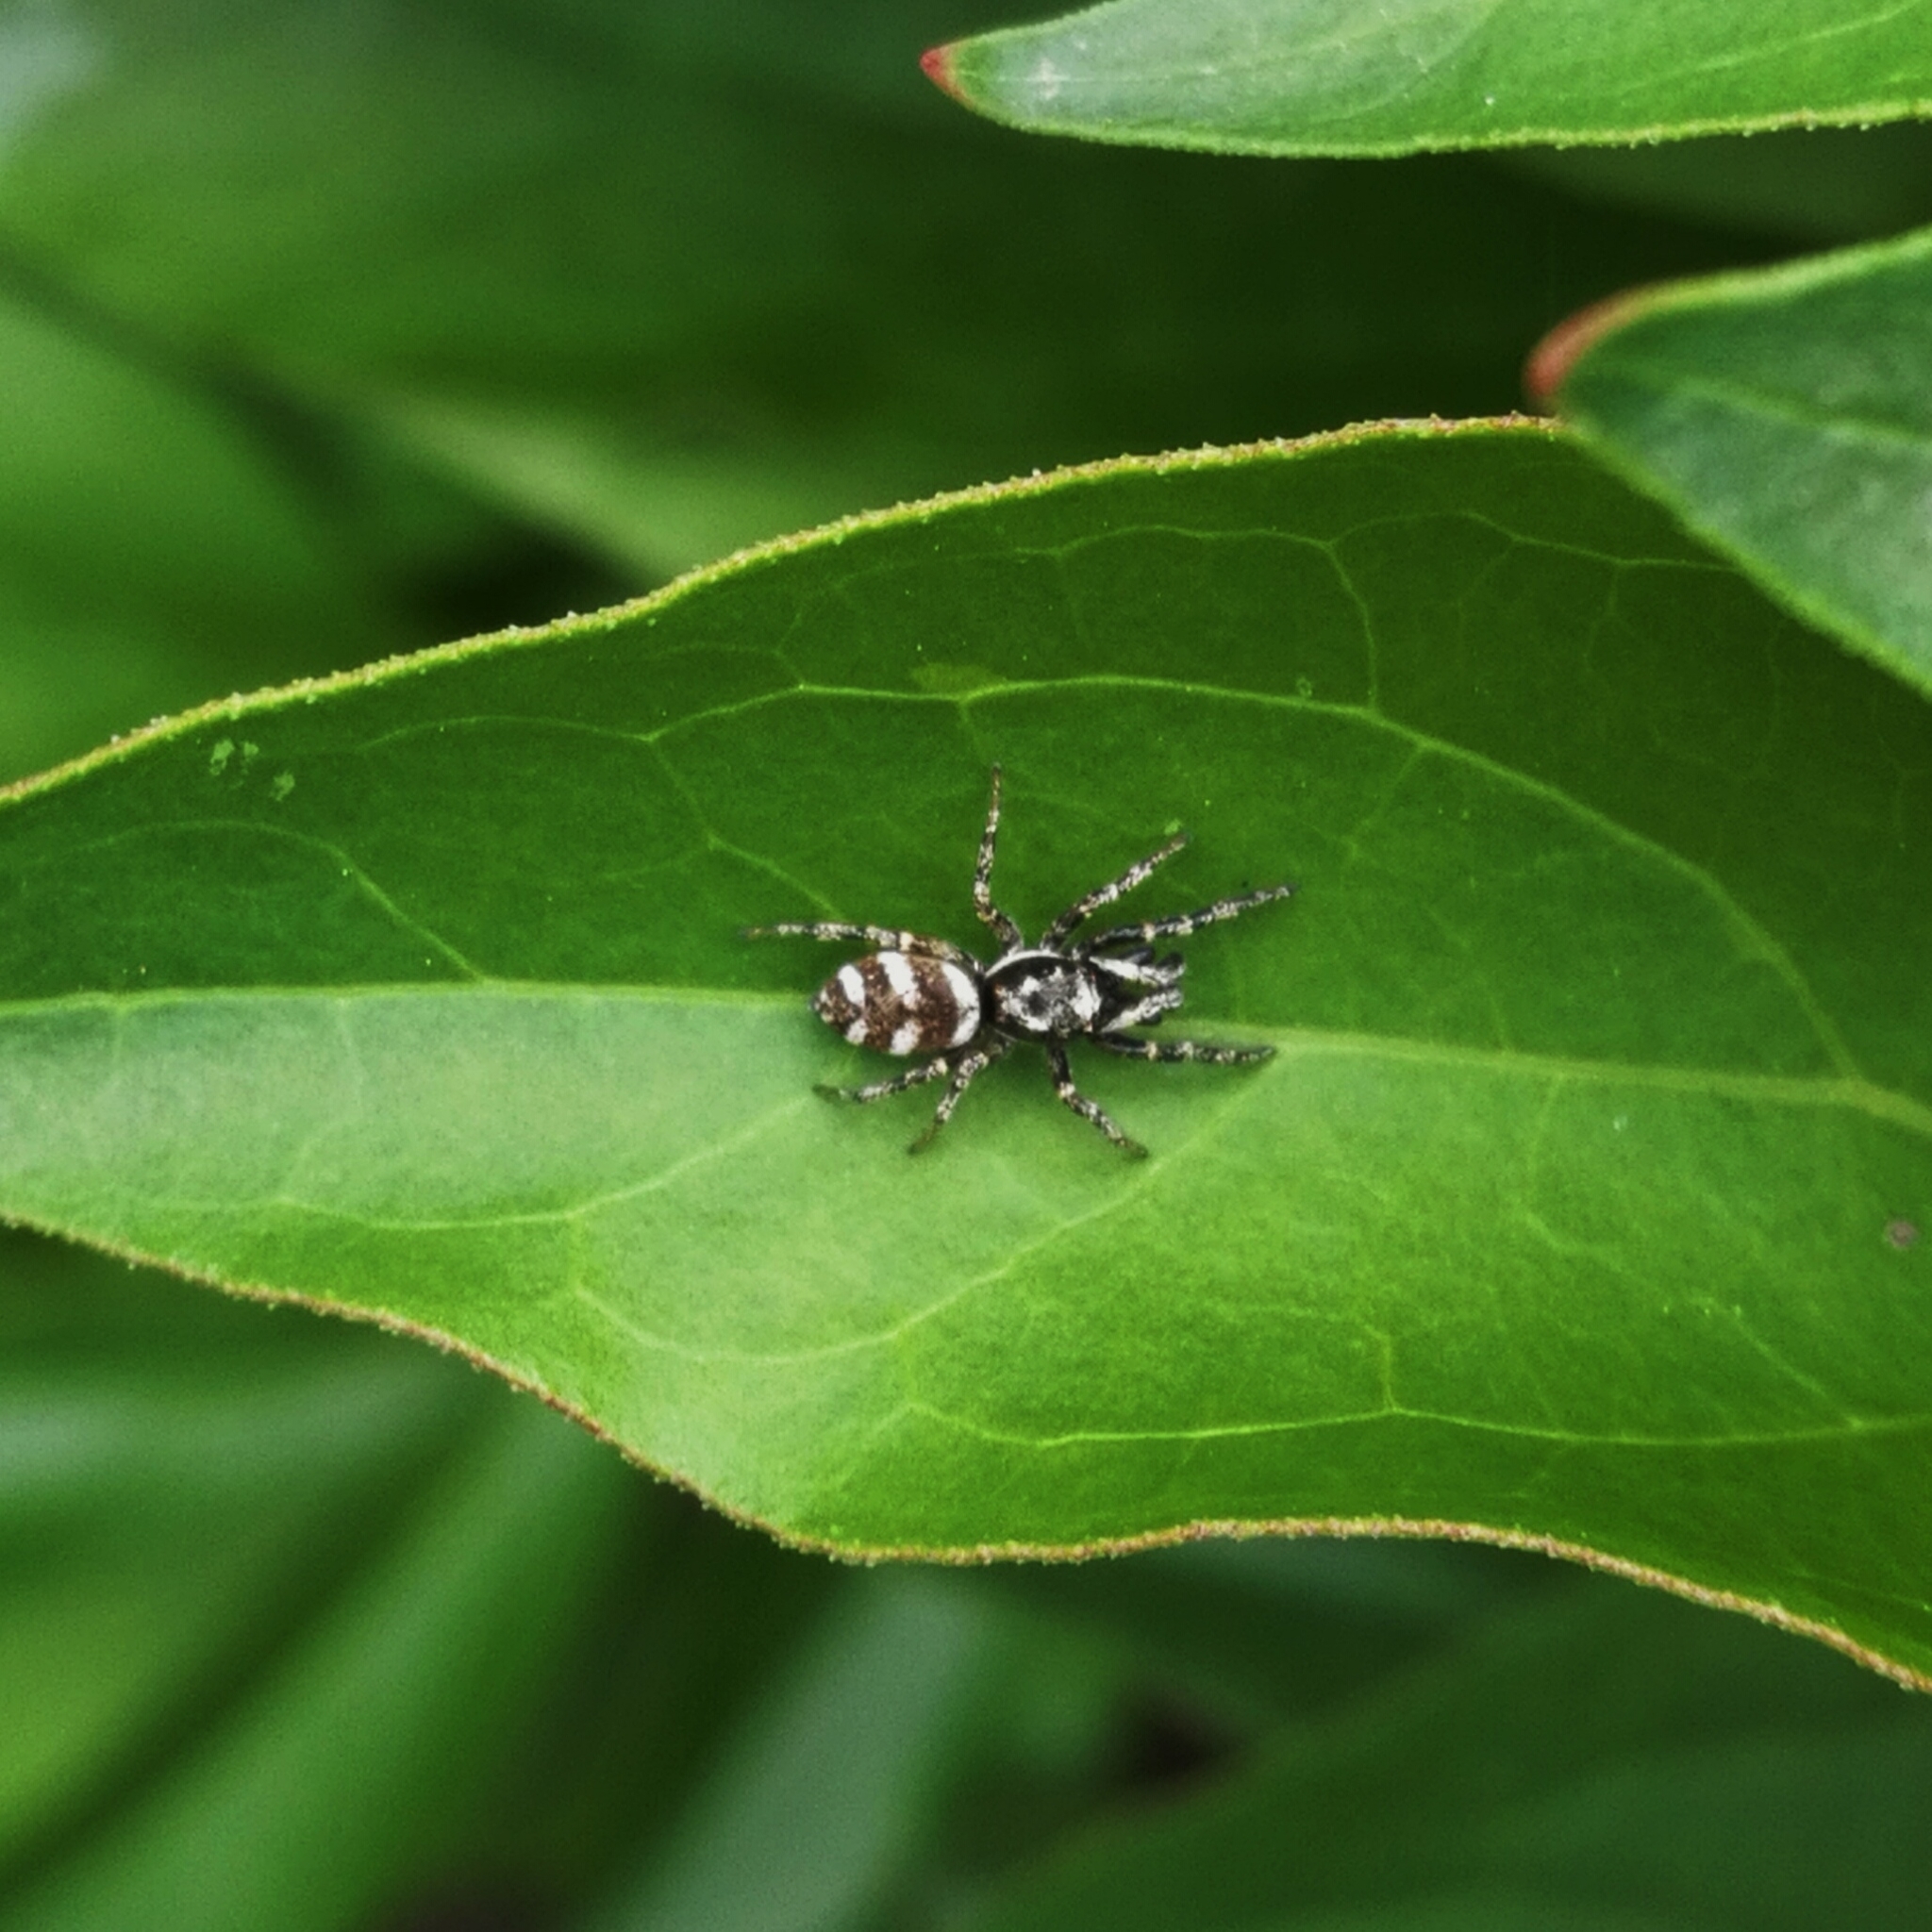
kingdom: Animalia
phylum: Arthropoda
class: Arachnida
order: Araneae
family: Salticidae
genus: Salticus
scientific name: Salticus scenicus
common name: Zebra jumper
